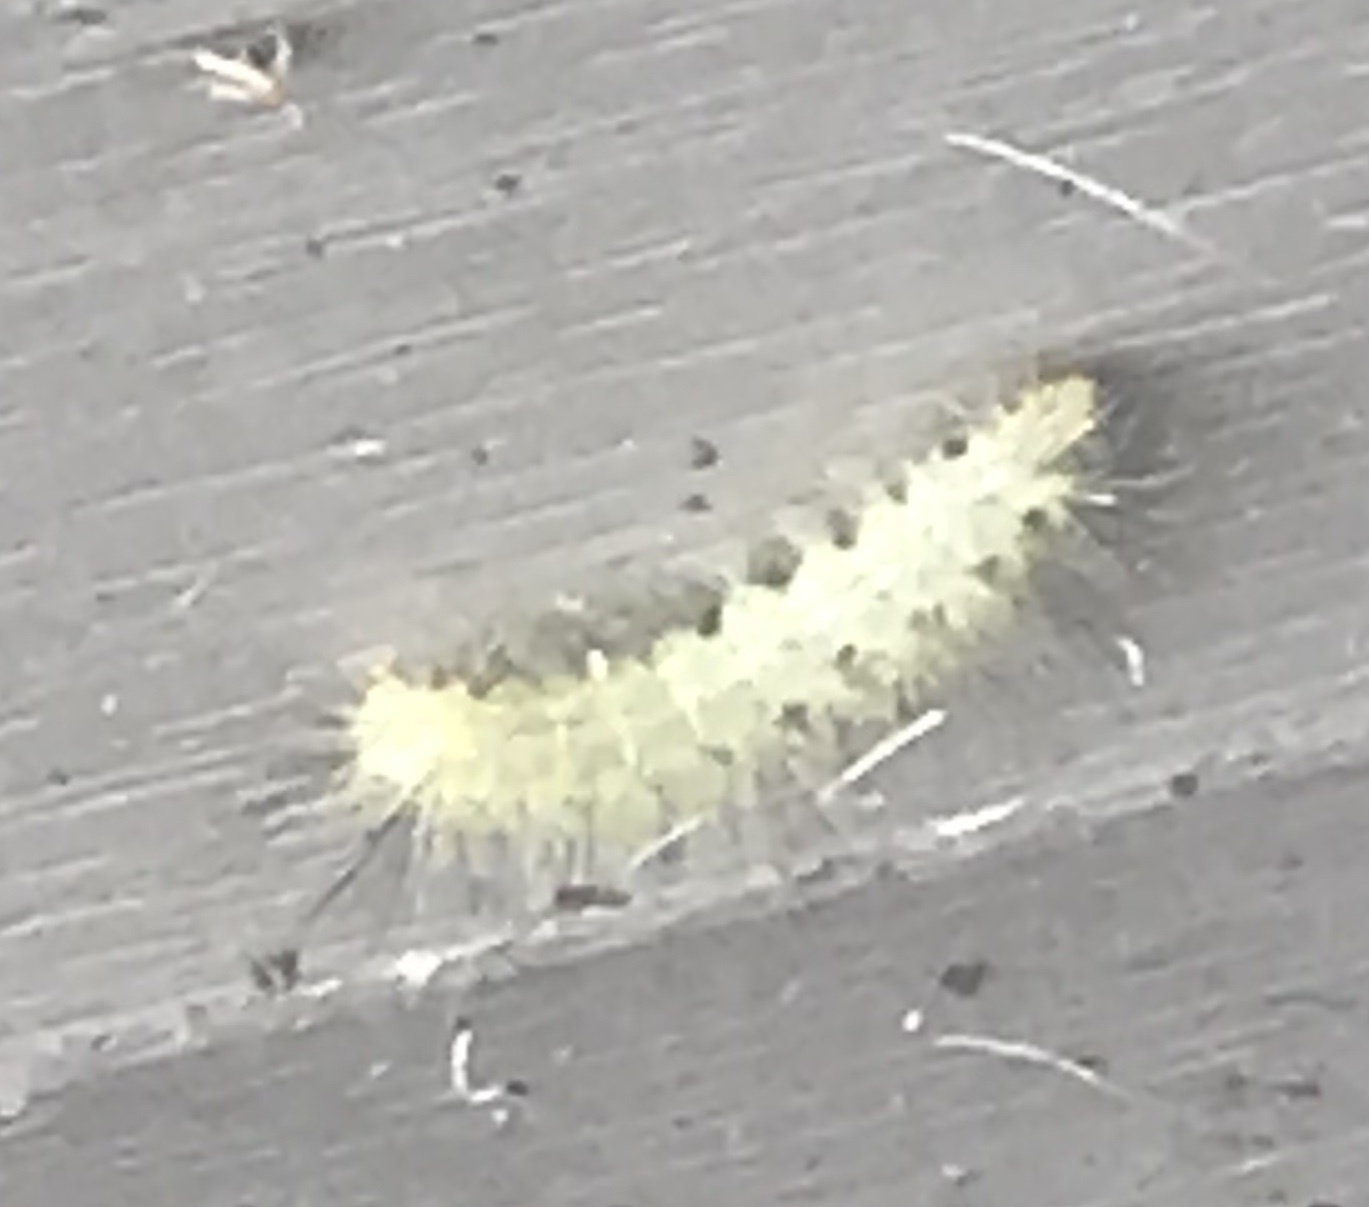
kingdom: Animalia
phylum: Arthropoda
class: Insecta
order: Lepidoptera
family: Erebidae
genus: Hyphantria
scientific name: Hyphantria cunea
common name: American white moth
